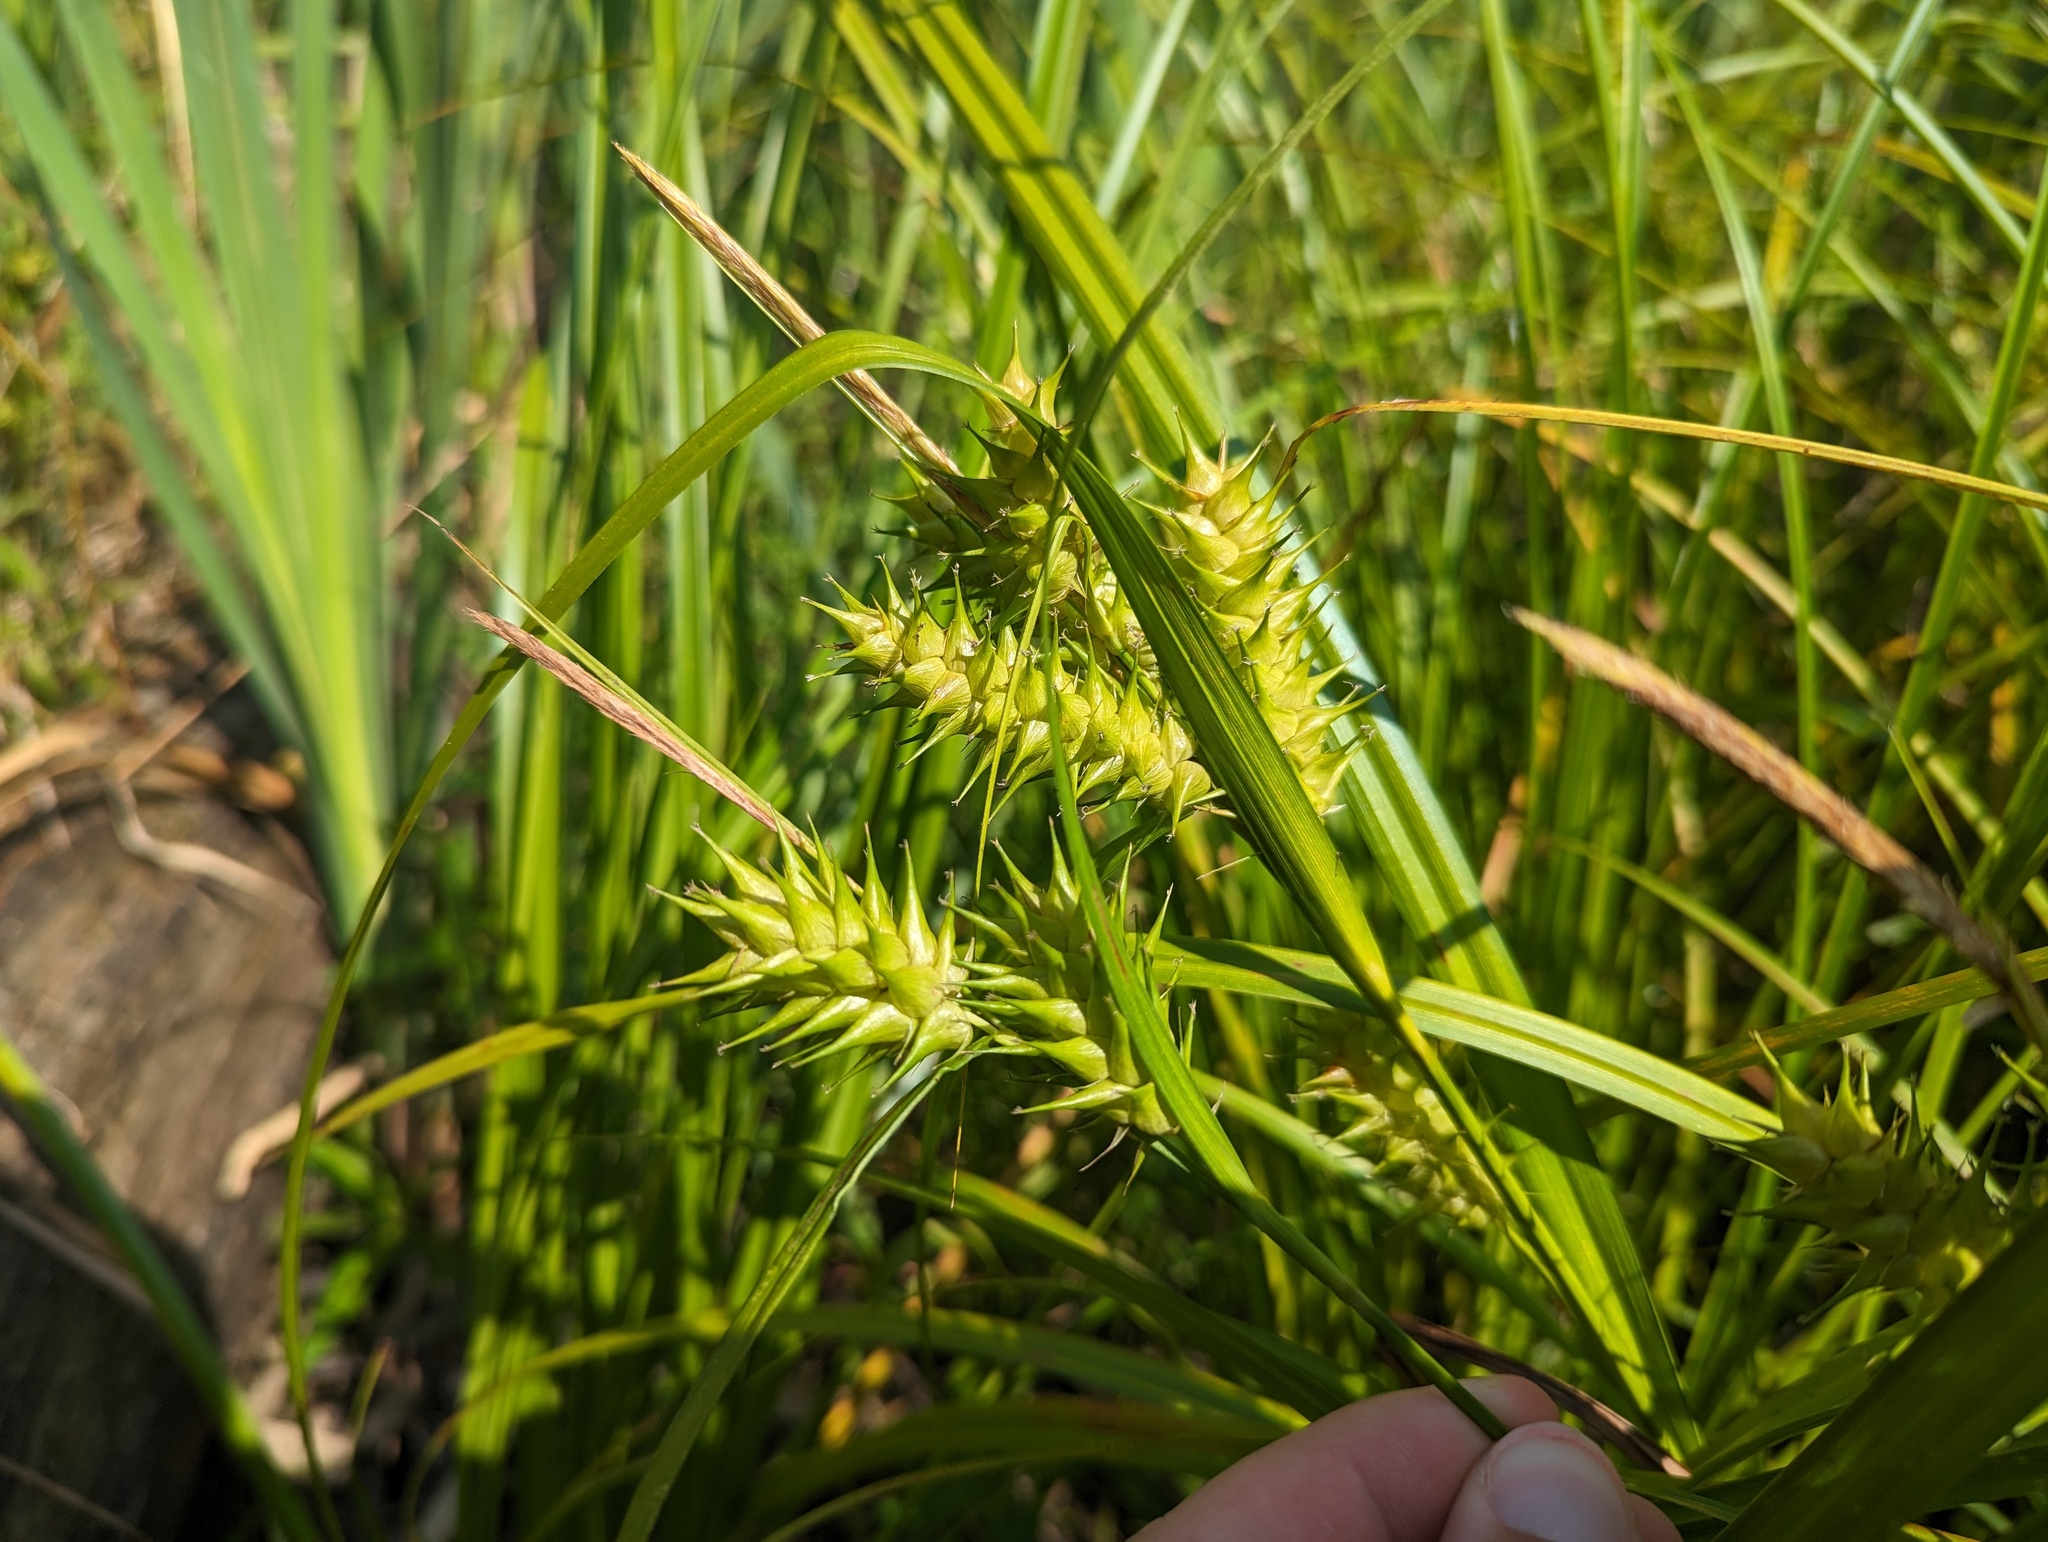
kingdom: Plantae
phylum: Tracheophyta
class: Liliopsida
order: Poales
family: Cyperaceae
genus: Carex
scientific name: Carex lupulina
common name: Hop sedge
